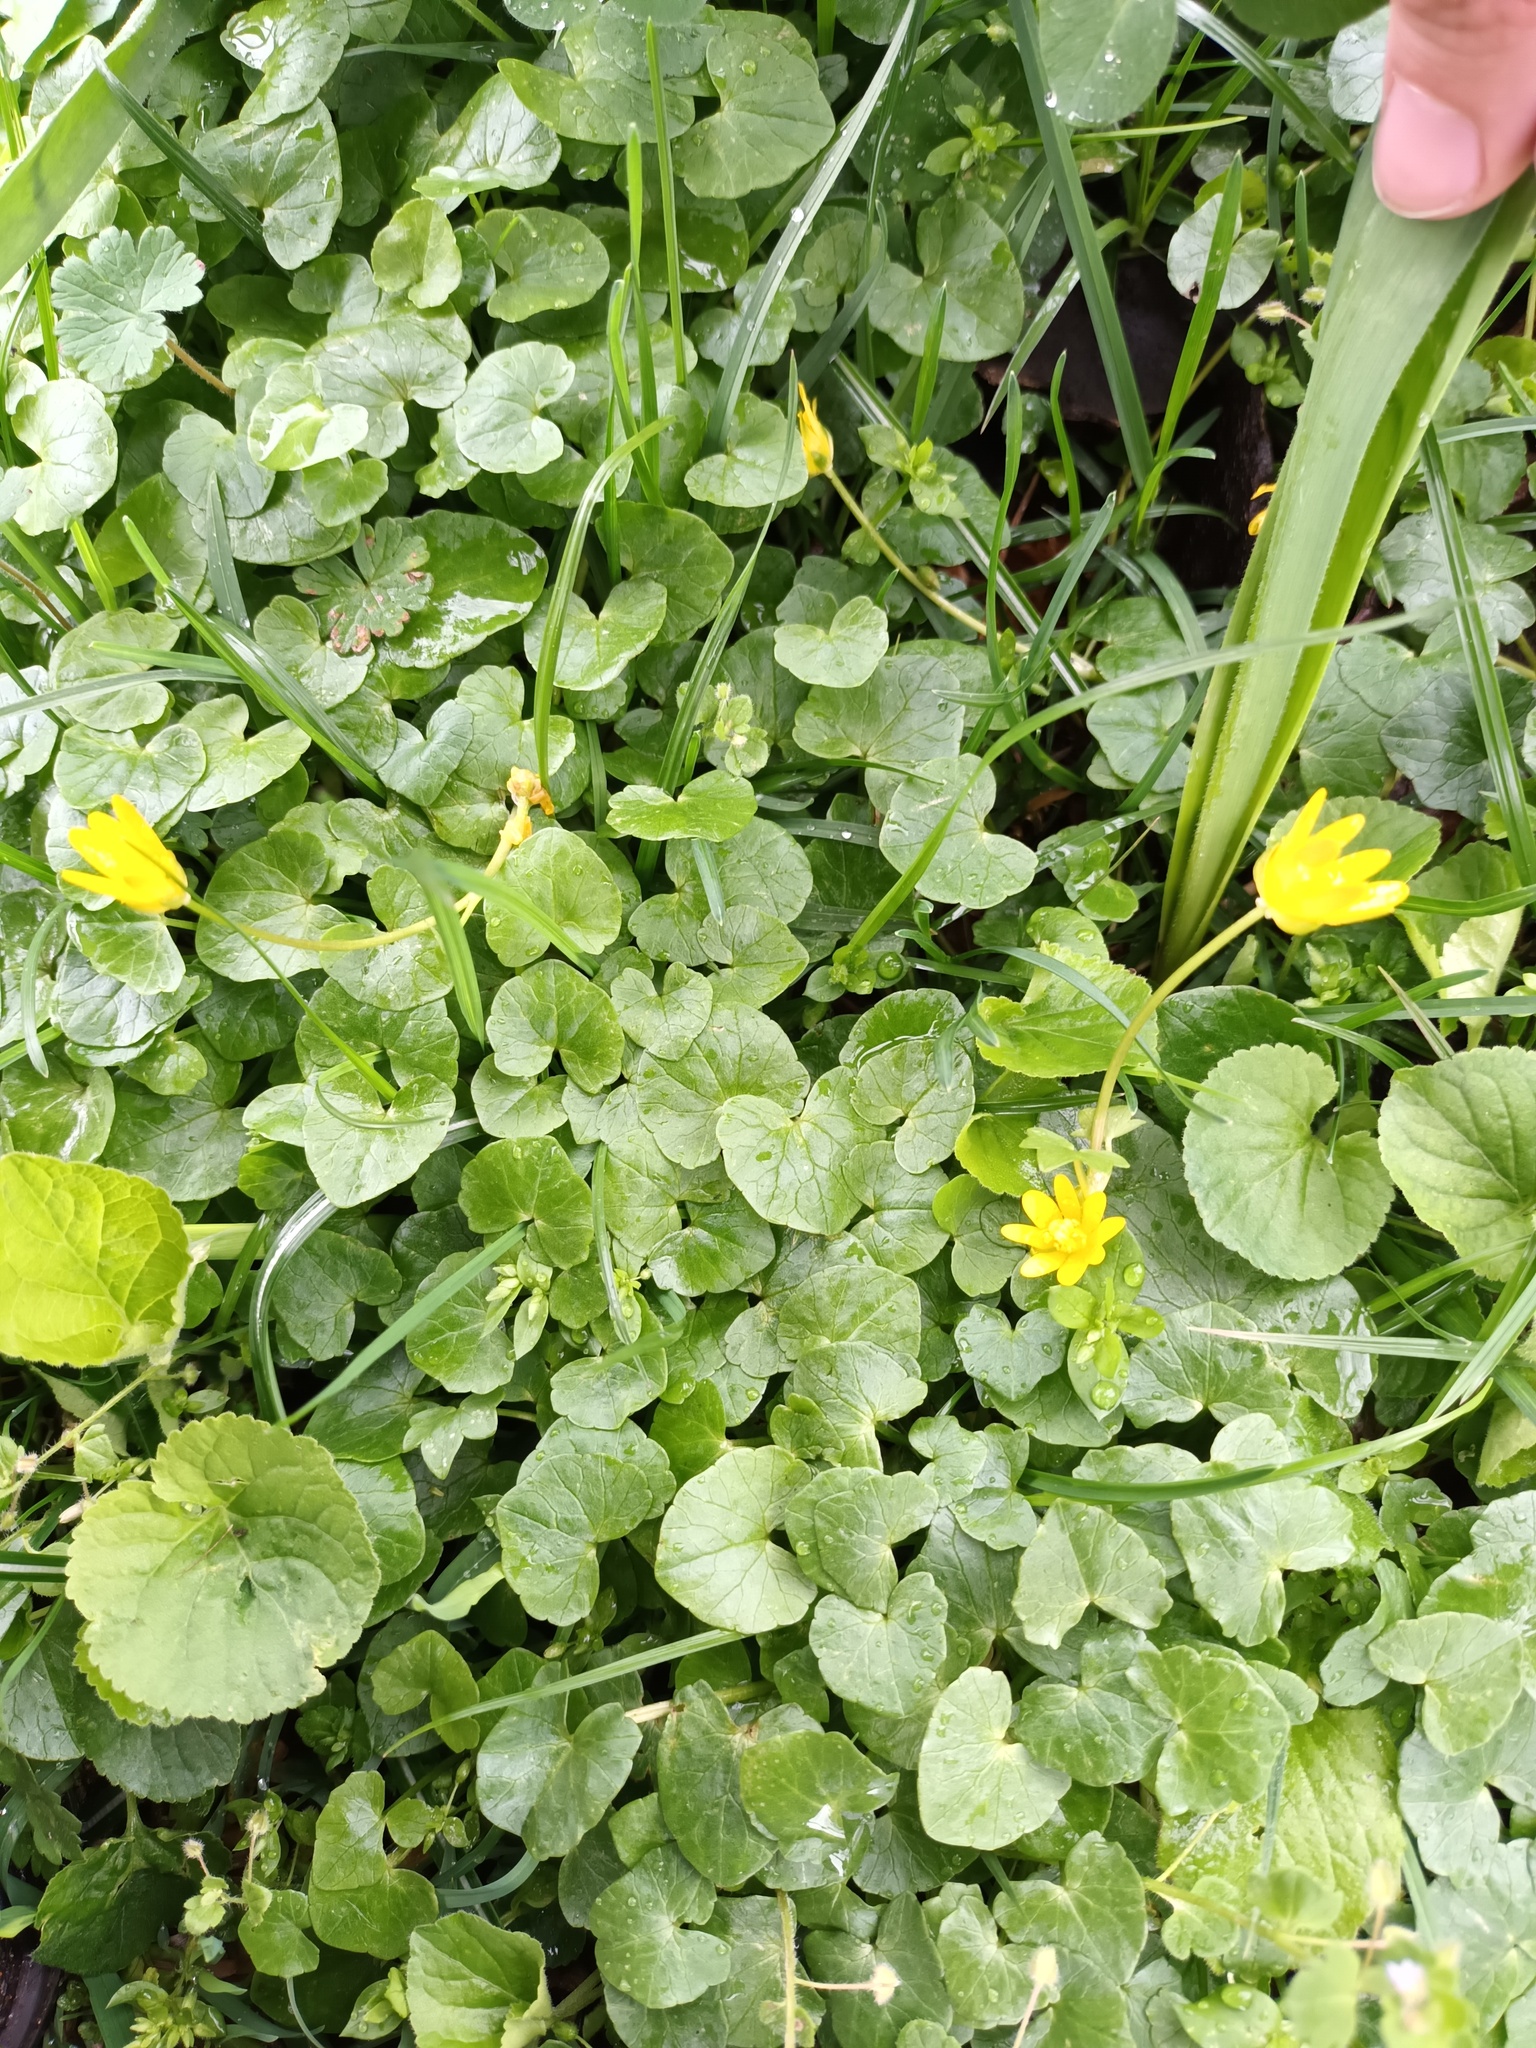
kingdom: Plantae
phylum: Tracheophyta
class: Magnoliopsida
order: Ranunculales
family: Ranunculaceae
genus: Ficaria
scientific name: Ficaria verna
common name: Lesser celandine
